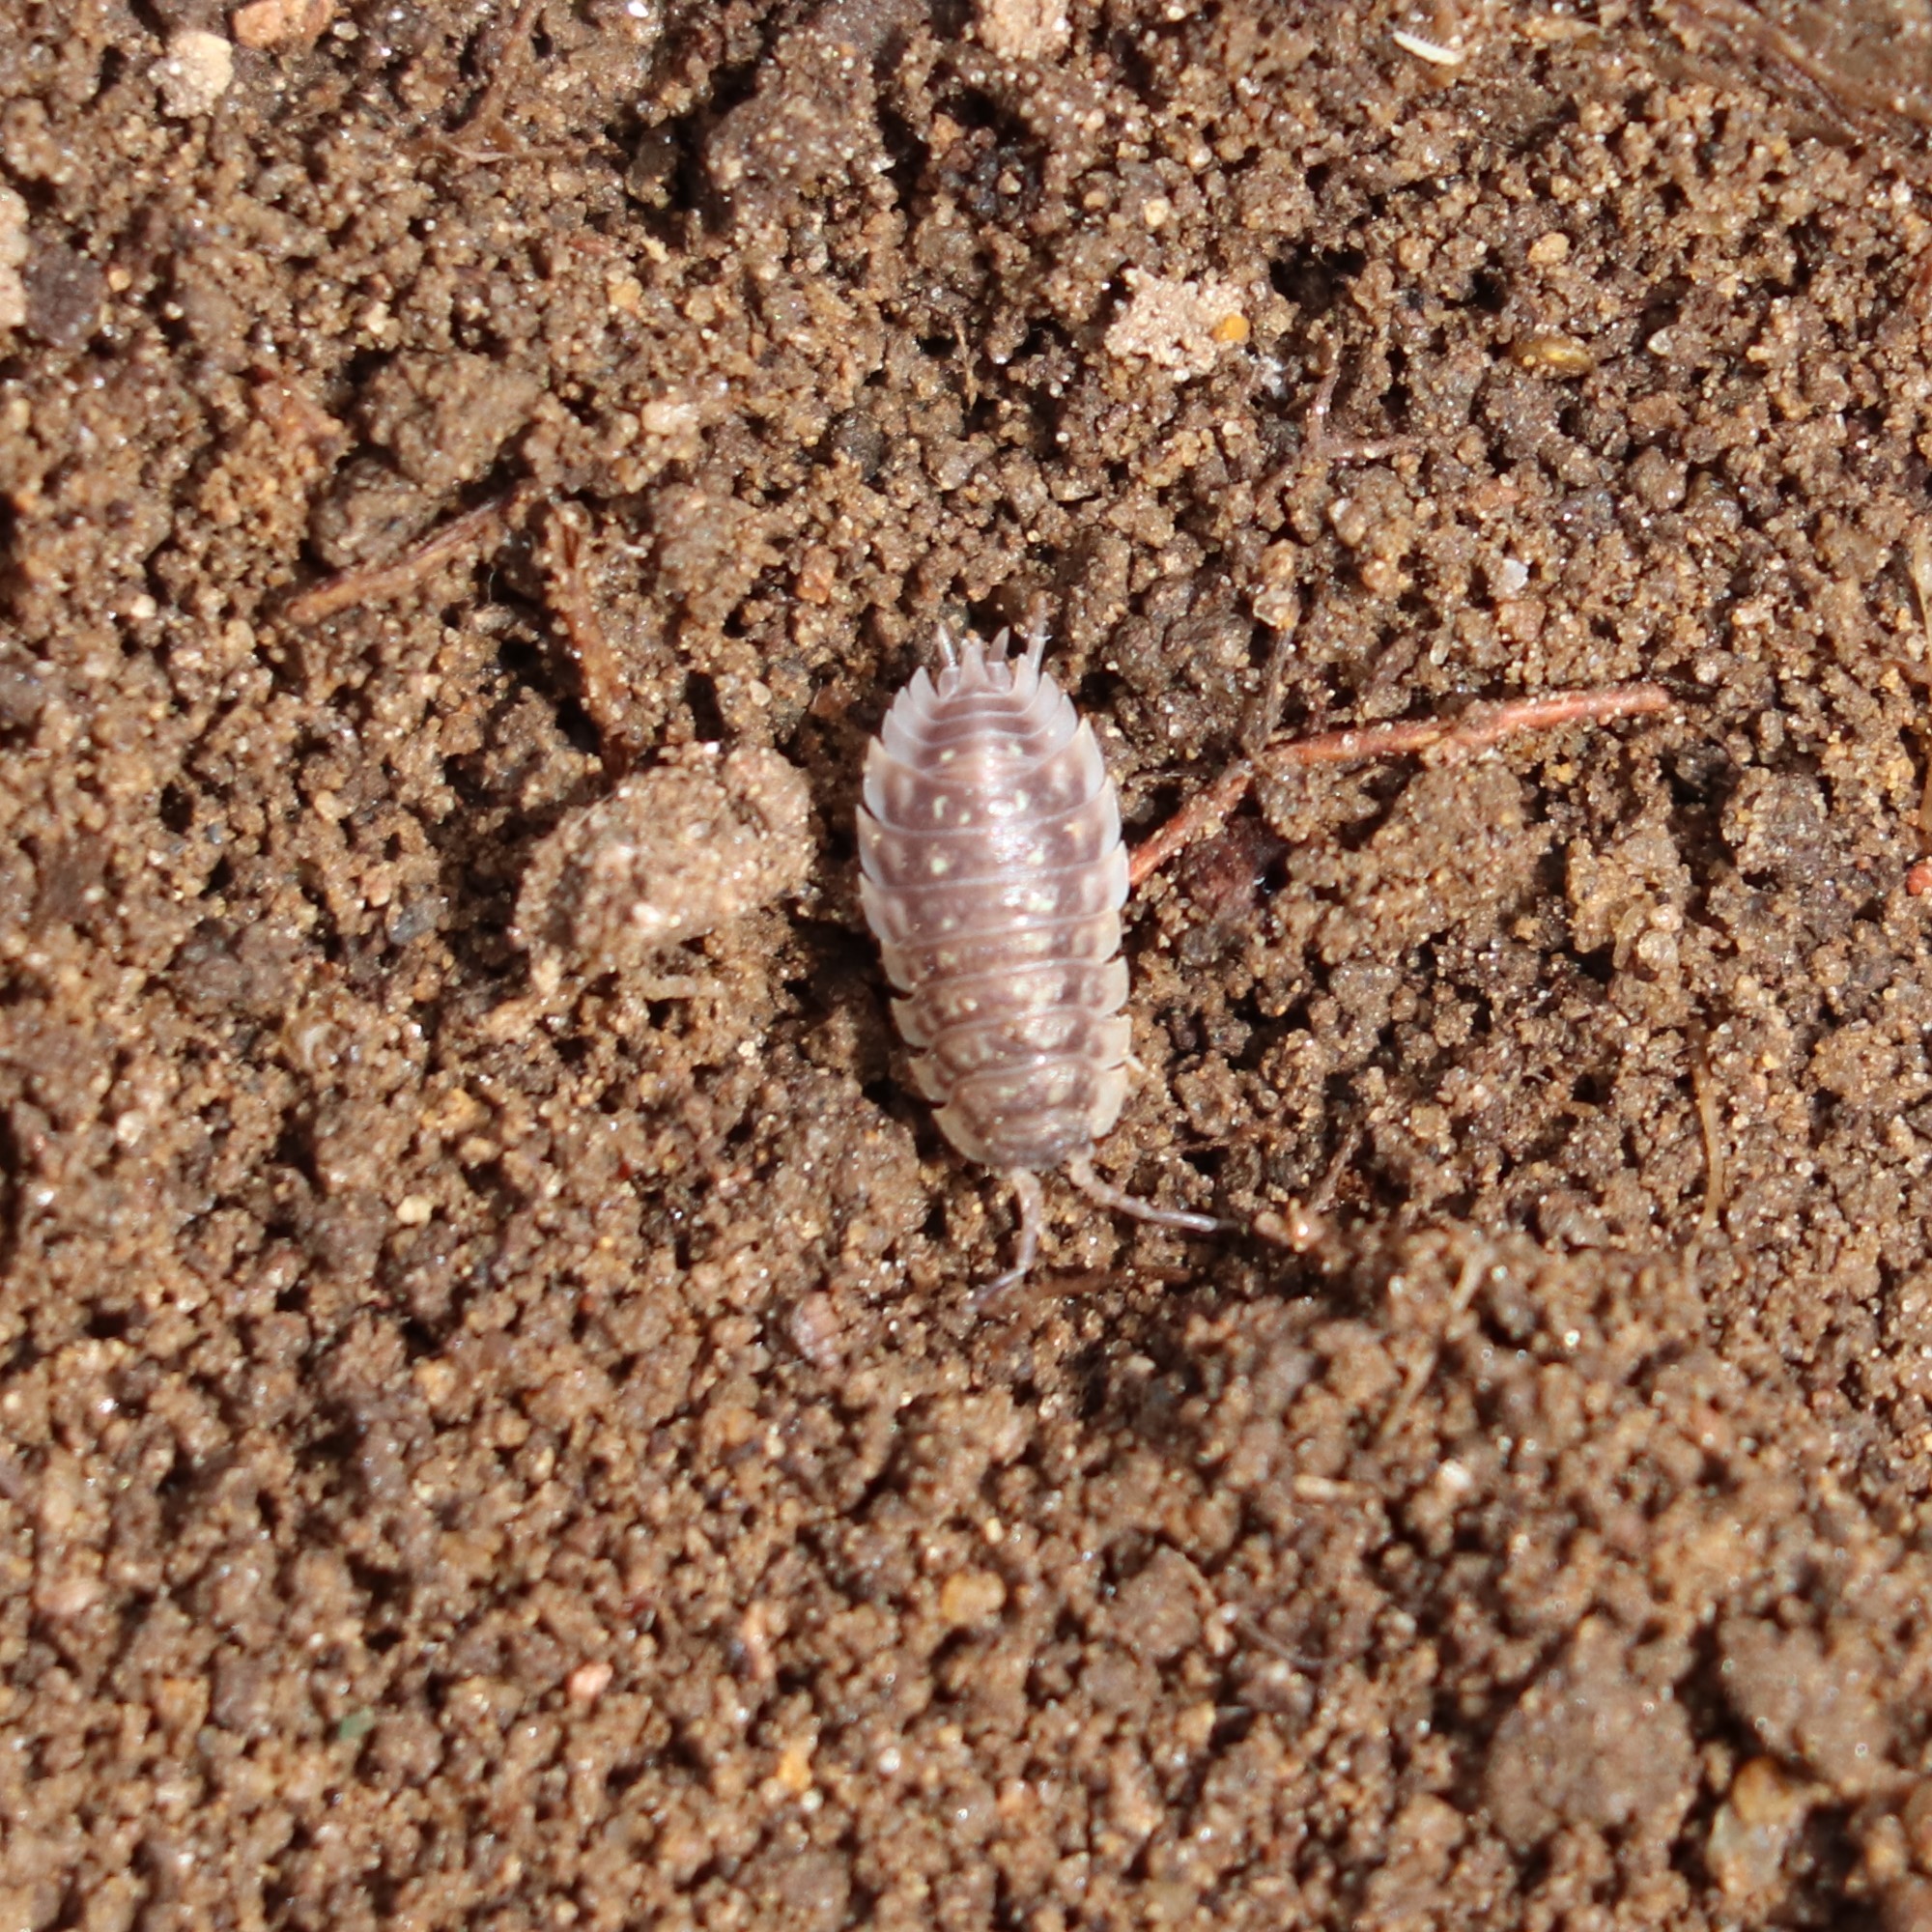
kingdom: Animalia
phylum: Arthropoda
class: Malacostraca
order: Isopoda
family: Oniscidae
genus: Oniscus
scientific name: Oniscus asellus
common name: Common shiny woodlouse
